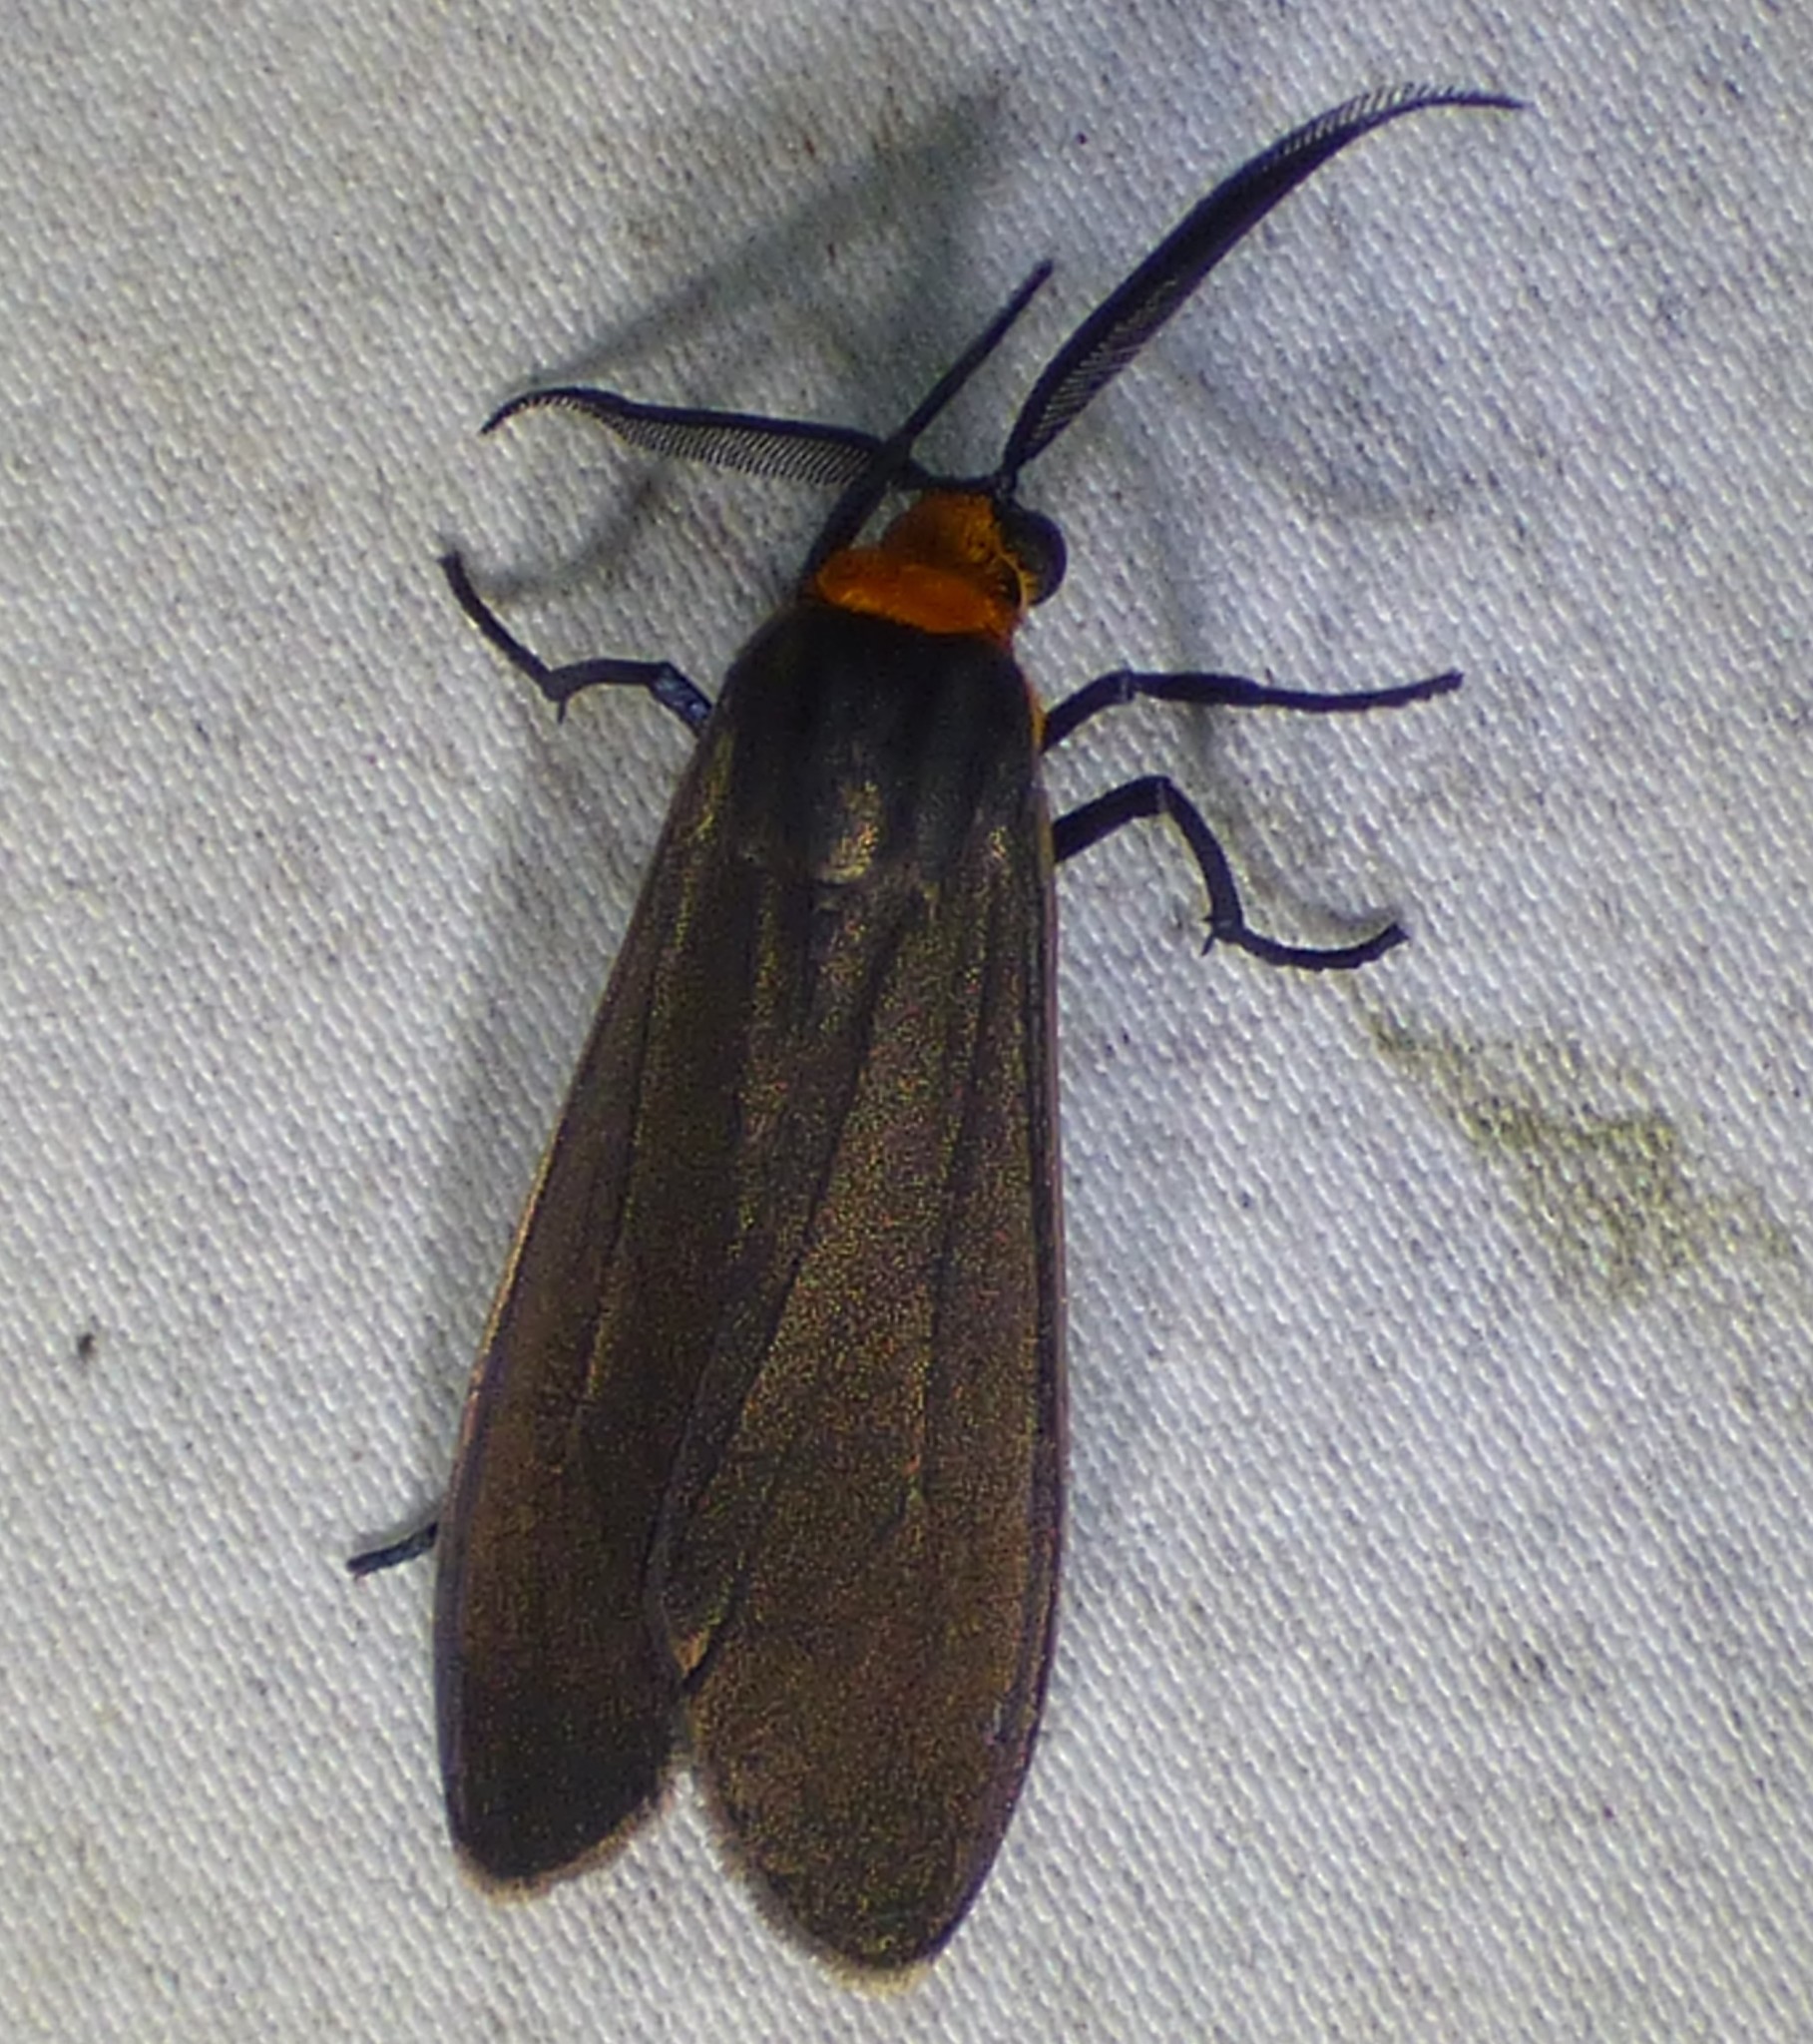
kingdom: Animalia
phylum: Arthropoda
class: Insecta
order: Lepidoptera
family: Erebidae
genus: Cisseps
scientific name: Cisseps fulvicollis
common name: Yellow-collared scape moth
